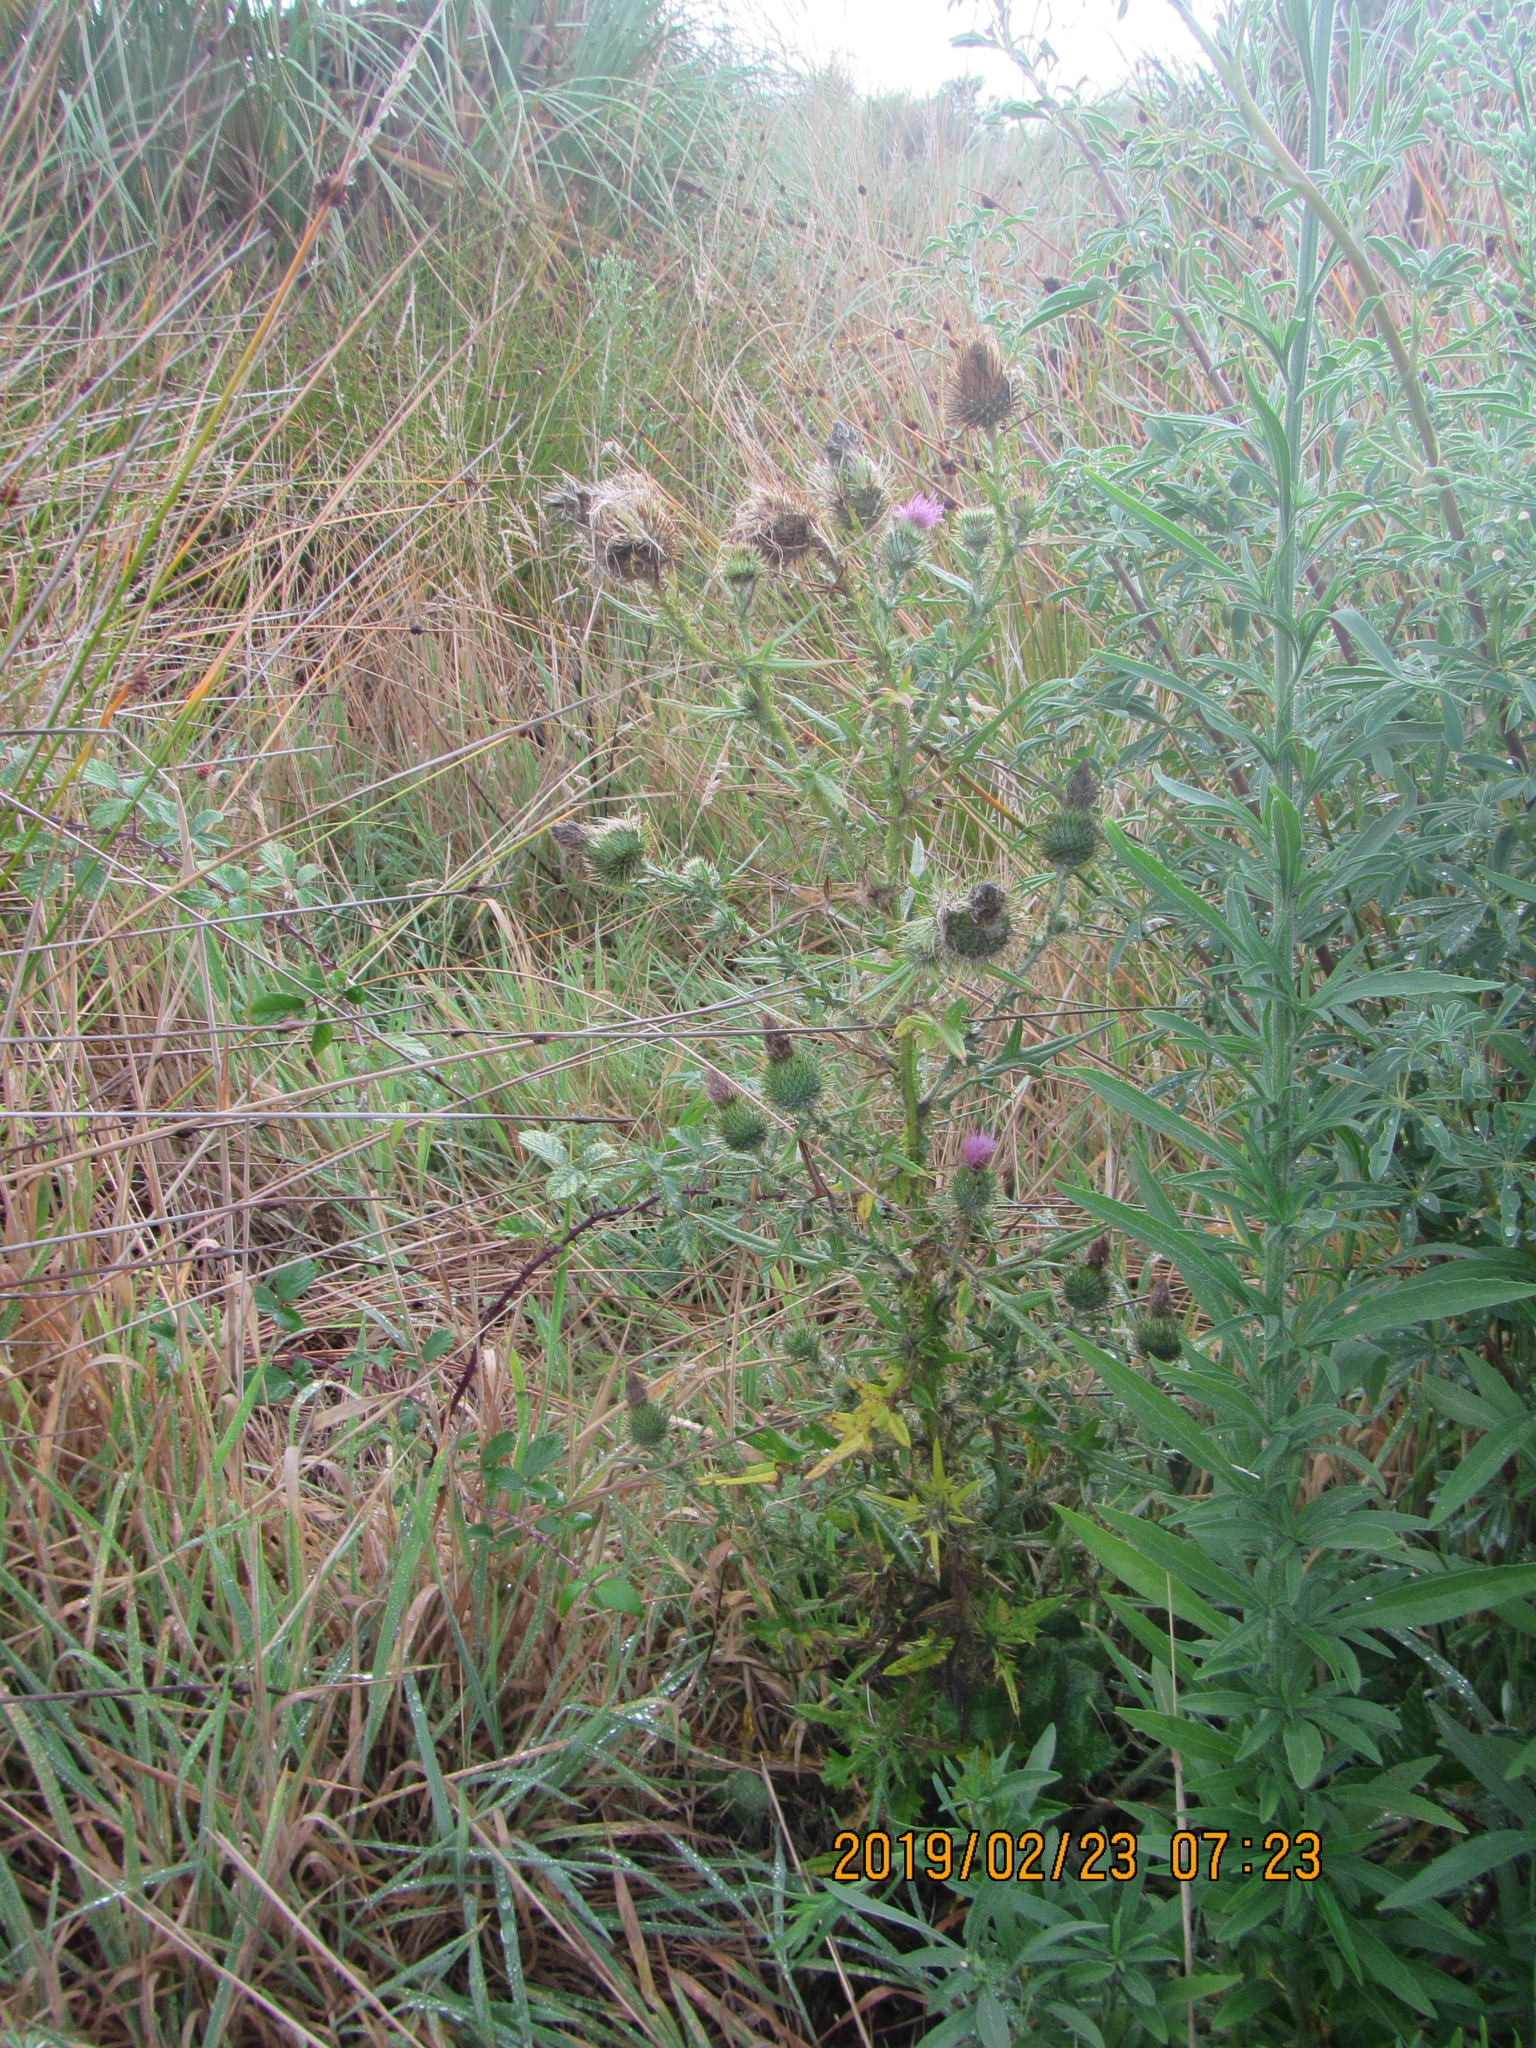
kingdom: Plantae
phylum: Tracheophyta
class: Magnoliopsida
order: Asterales
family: Asteraceae
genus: Cirsium
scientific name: Cirsium vulgare
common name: Bull thistle
